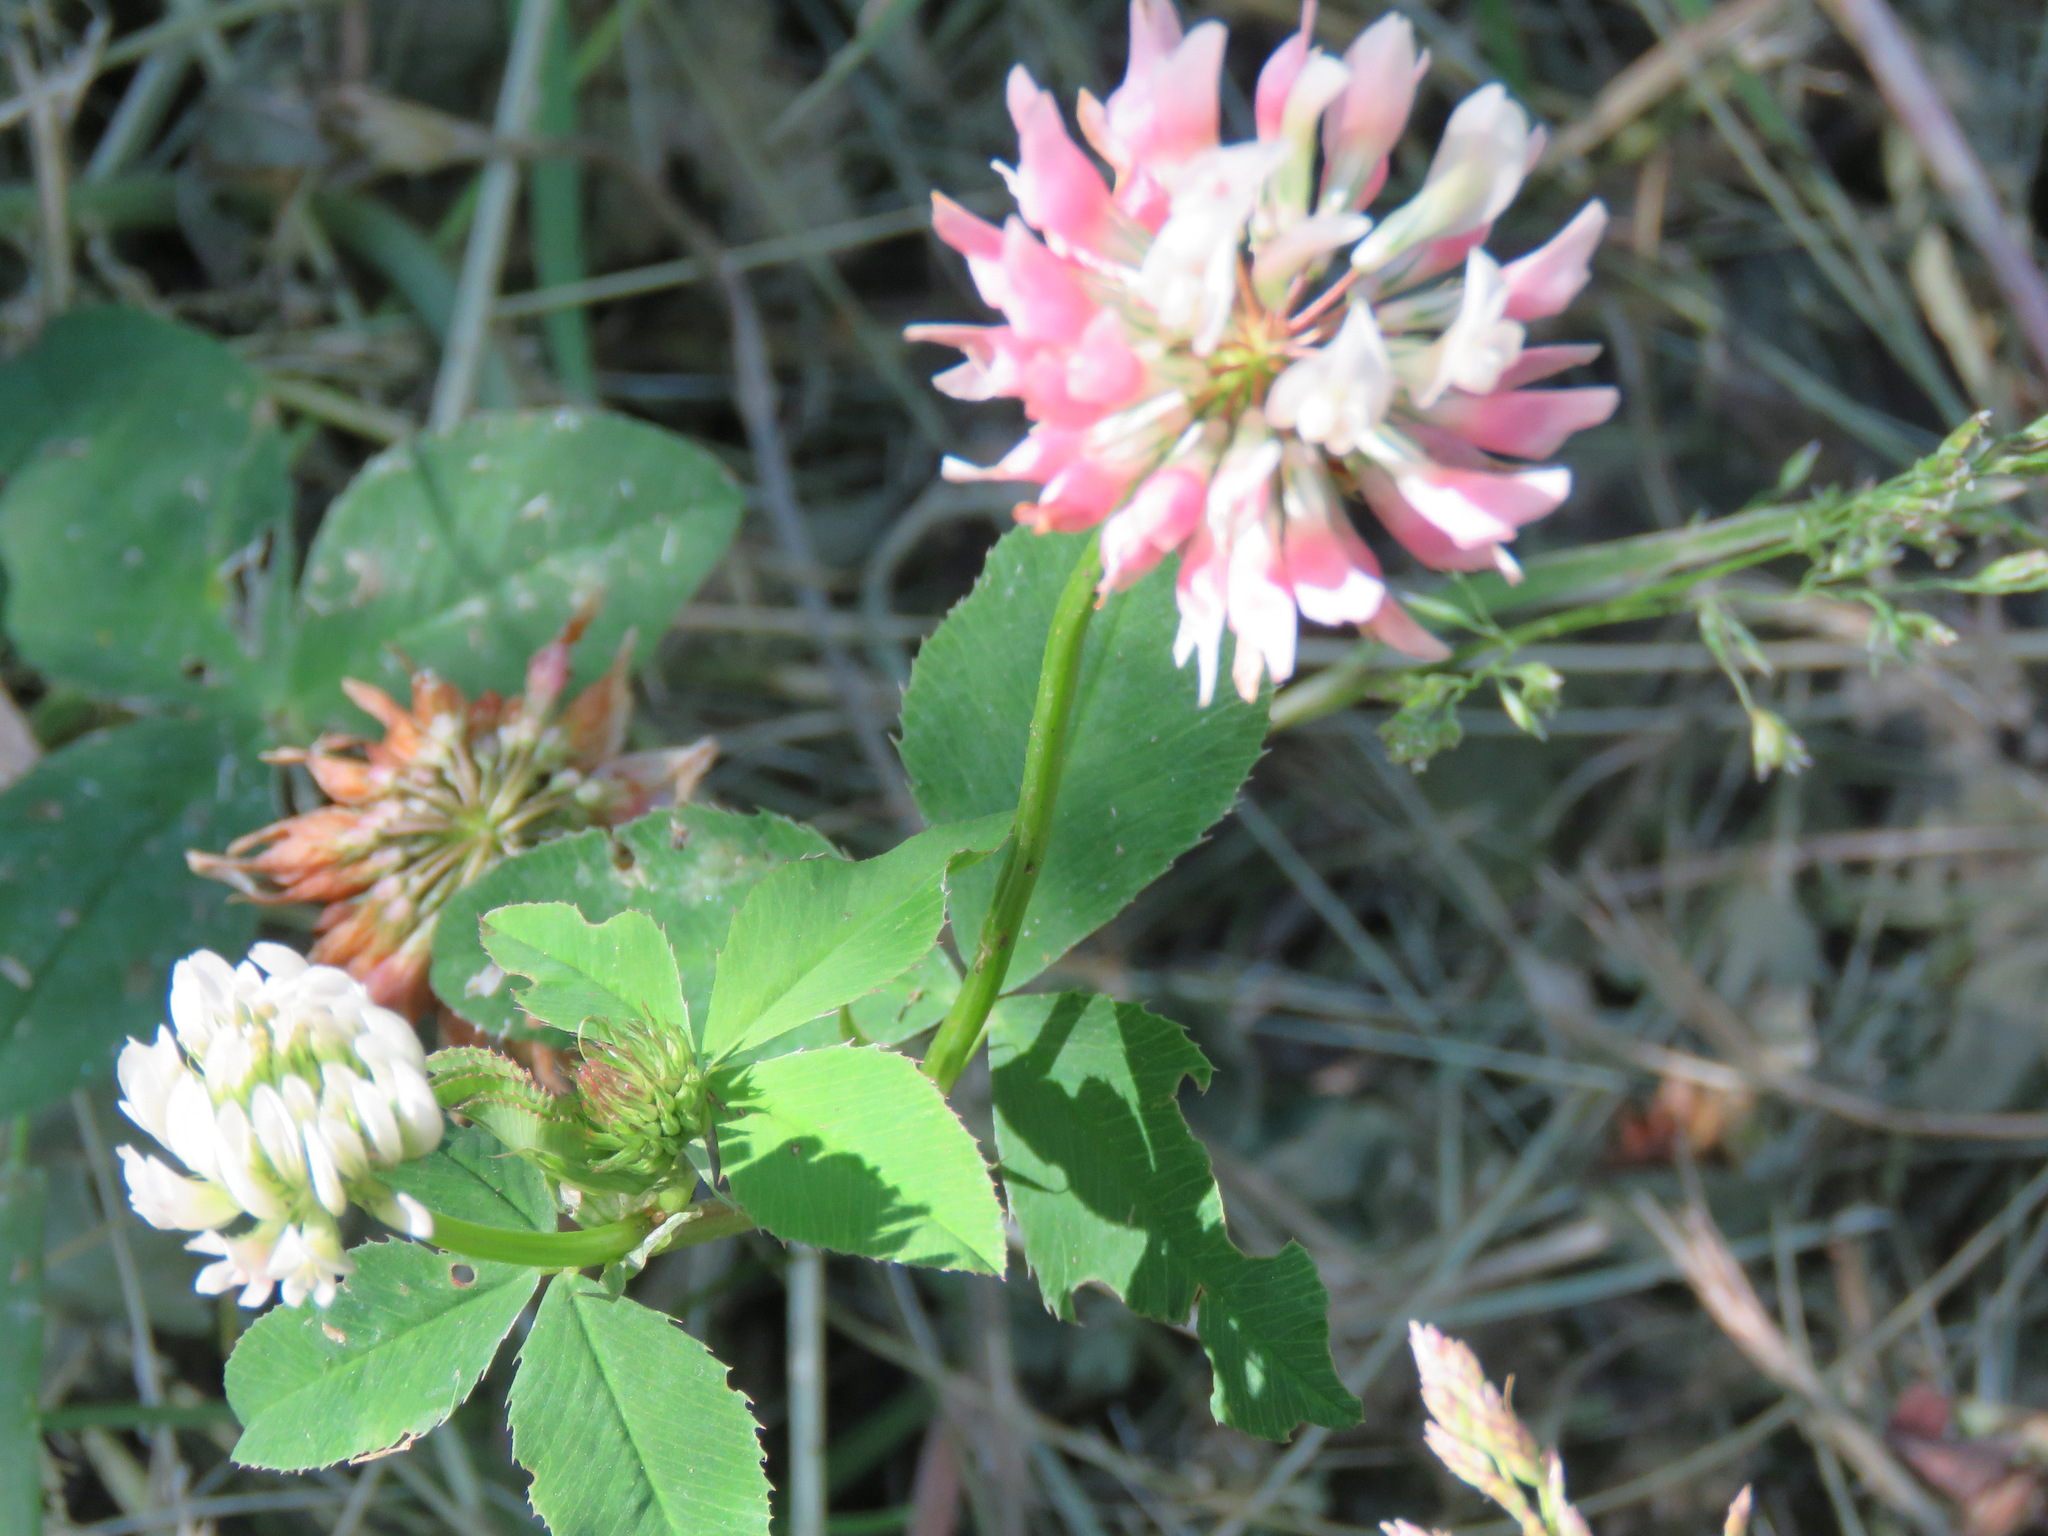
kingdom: Plantae
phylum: Tracheophyta
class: Magnoliopsida
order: Fabales
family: Fabaceae
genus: Trifolium
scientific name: Trifolium hybridum
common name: Alsike clover
